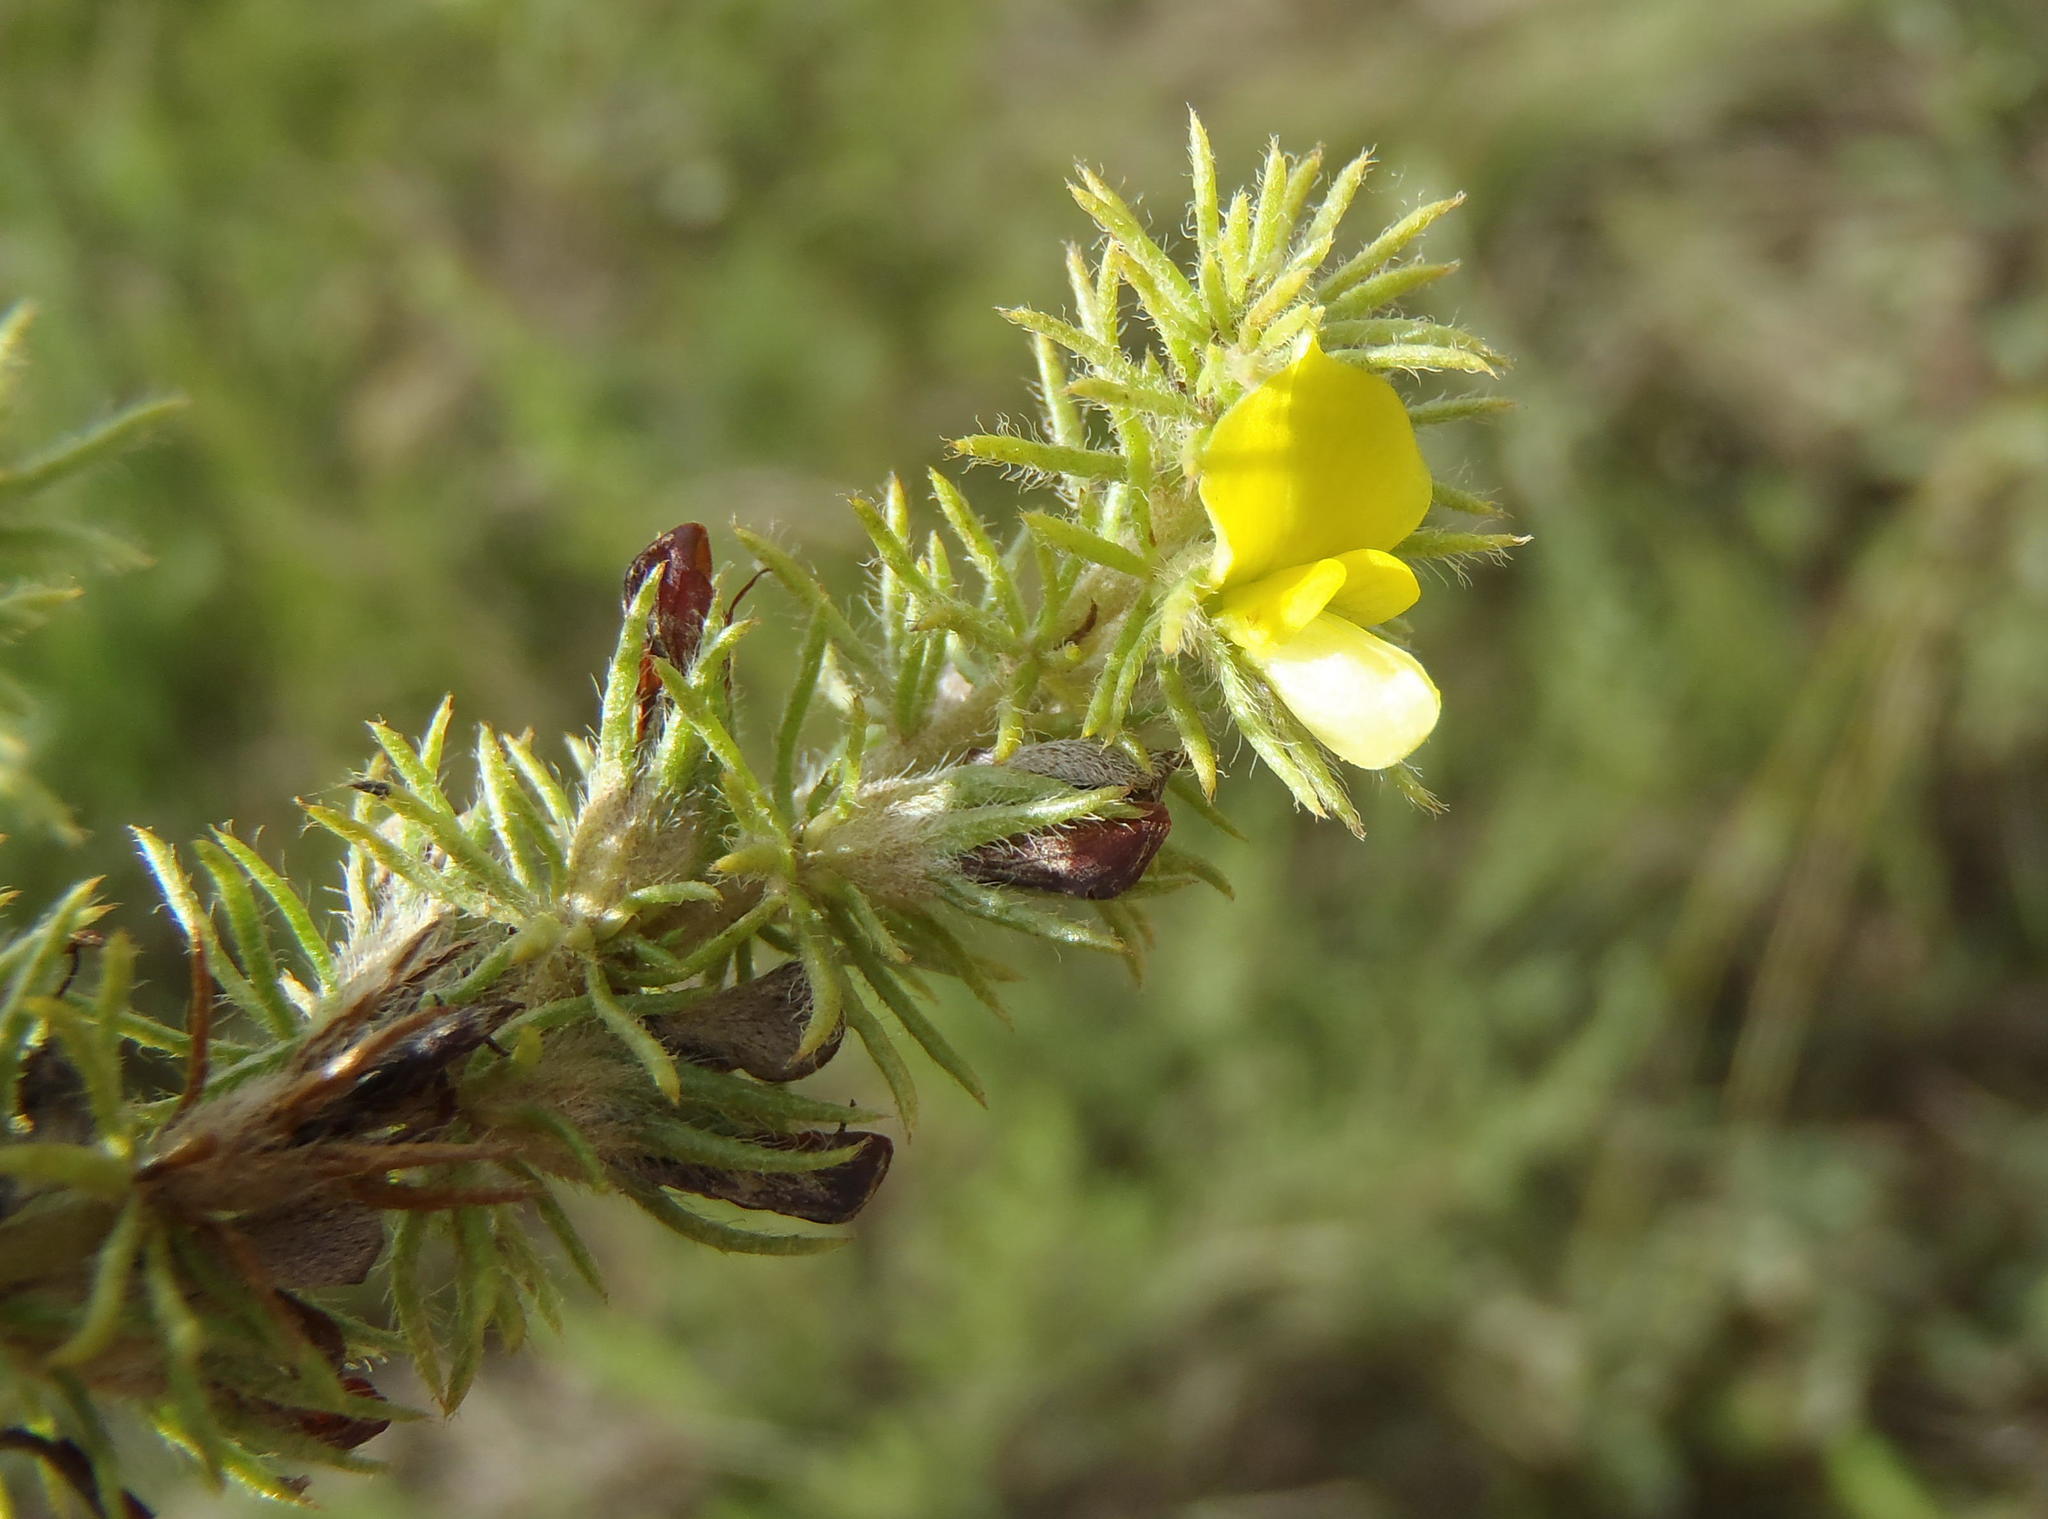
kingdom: Plantae
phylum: Tracheophyta
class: Magnoliopsida
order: Fabales
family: Fabaceae
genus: Aspalathus
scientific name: Aspalathus asparagoides
